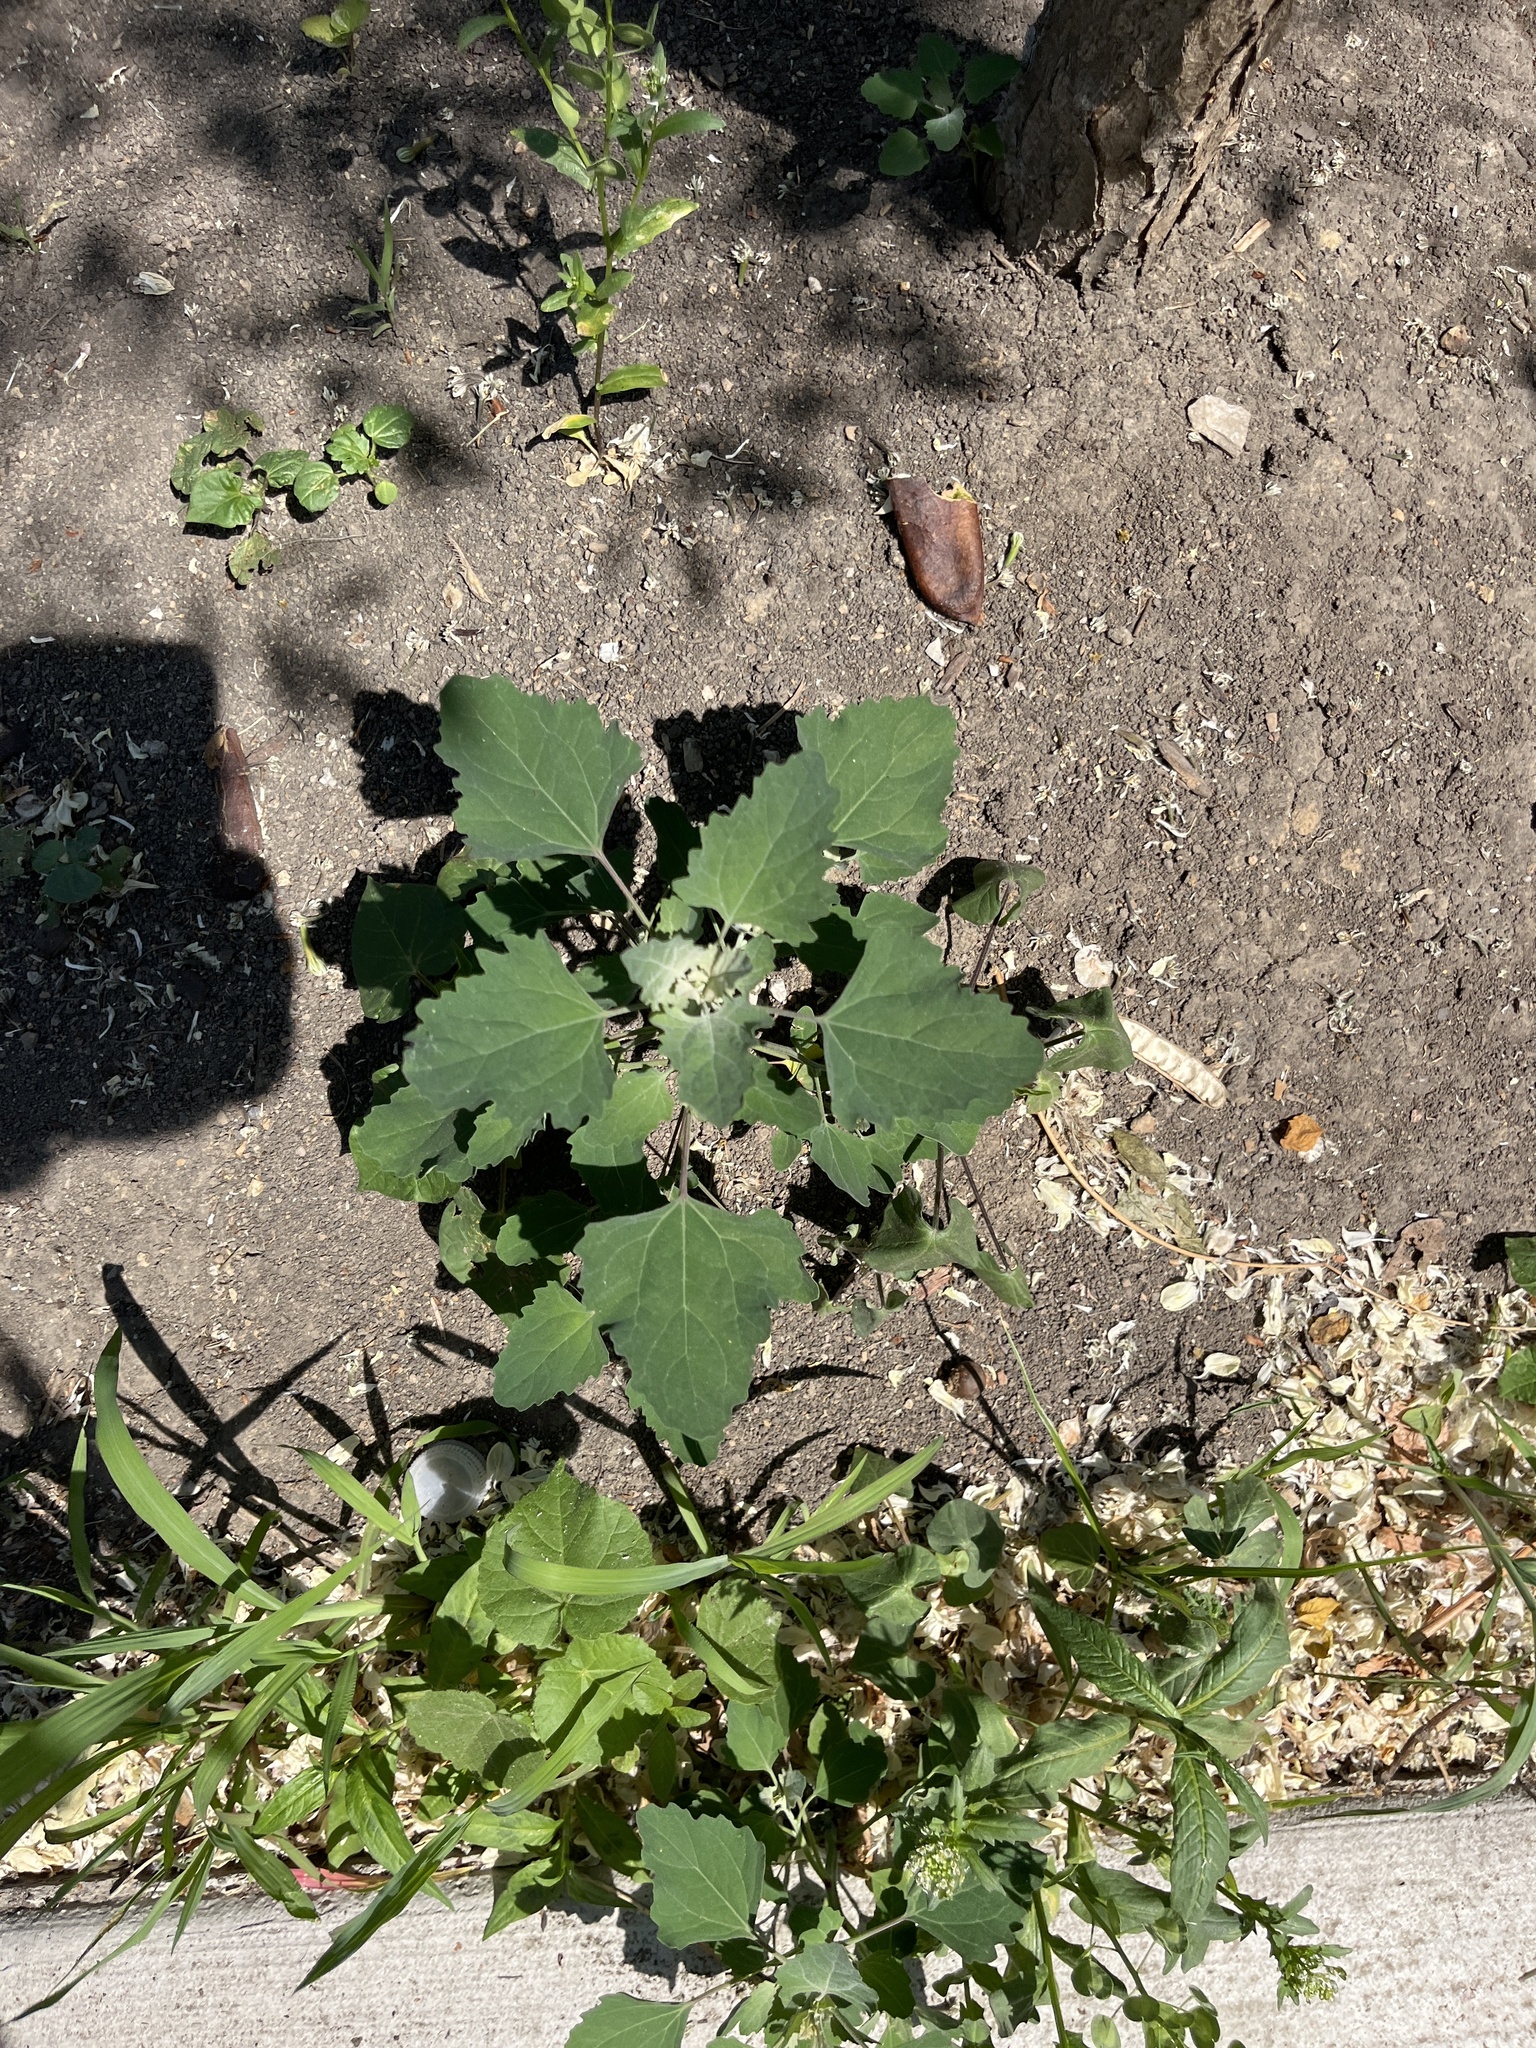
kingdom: Plantae
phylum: Tracheophyta
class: Magnoliopsida
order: Caryophyllales
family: Amaranthaceae
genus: Chenopodium
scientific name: Chenopodium album
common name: Fat-hen
